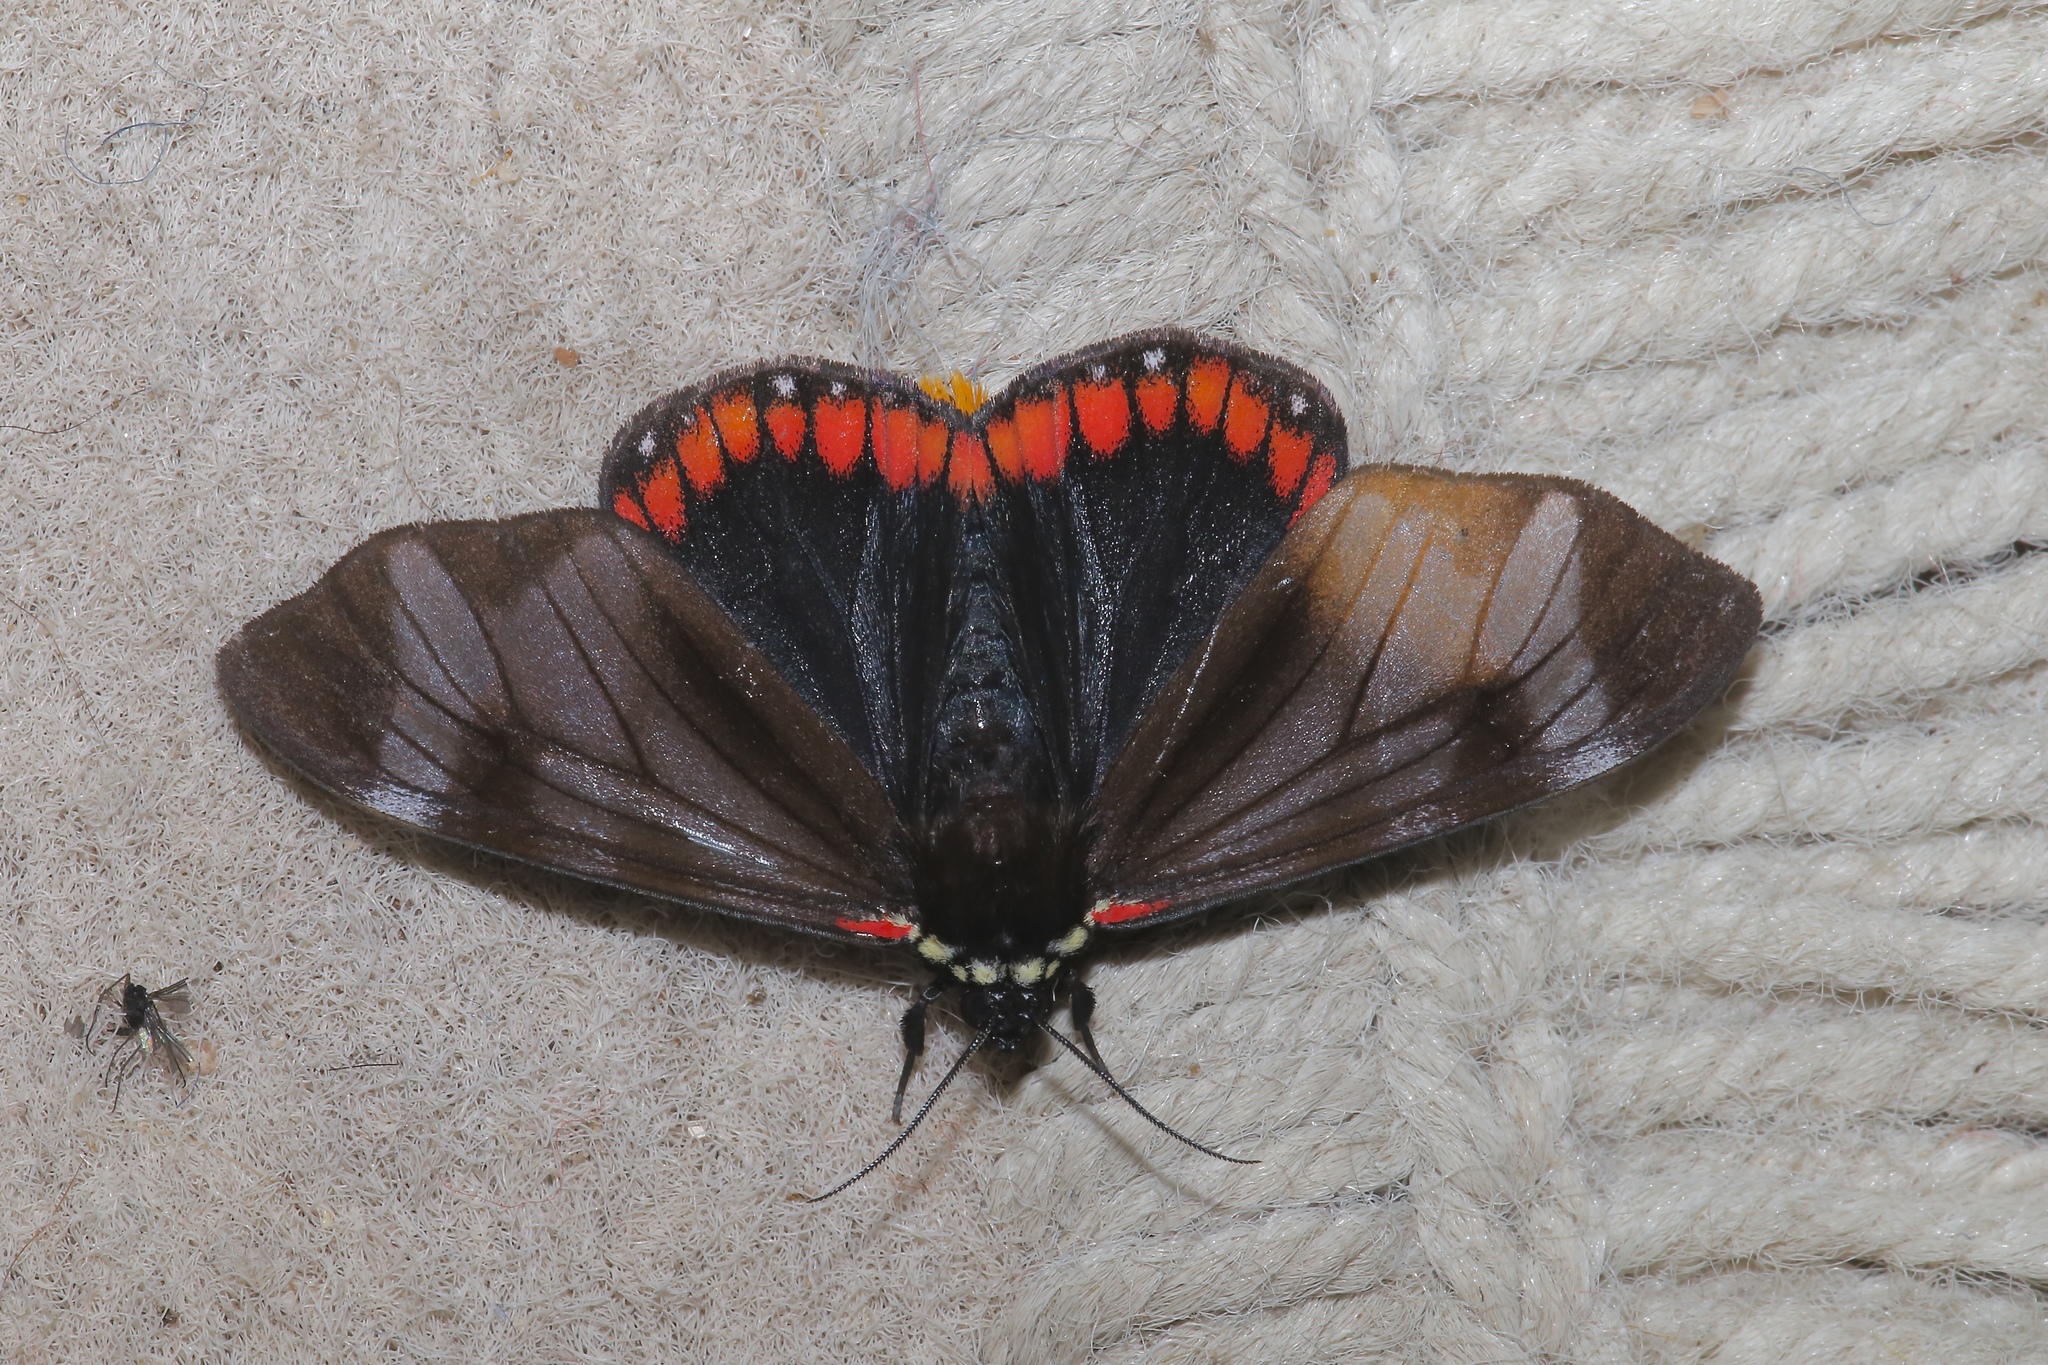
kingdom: Animalia
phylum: Arthropoda
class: Insecta
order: Lepidoptera
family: Erebidae
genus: Dysschema
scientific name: Dysschema leucophaea
